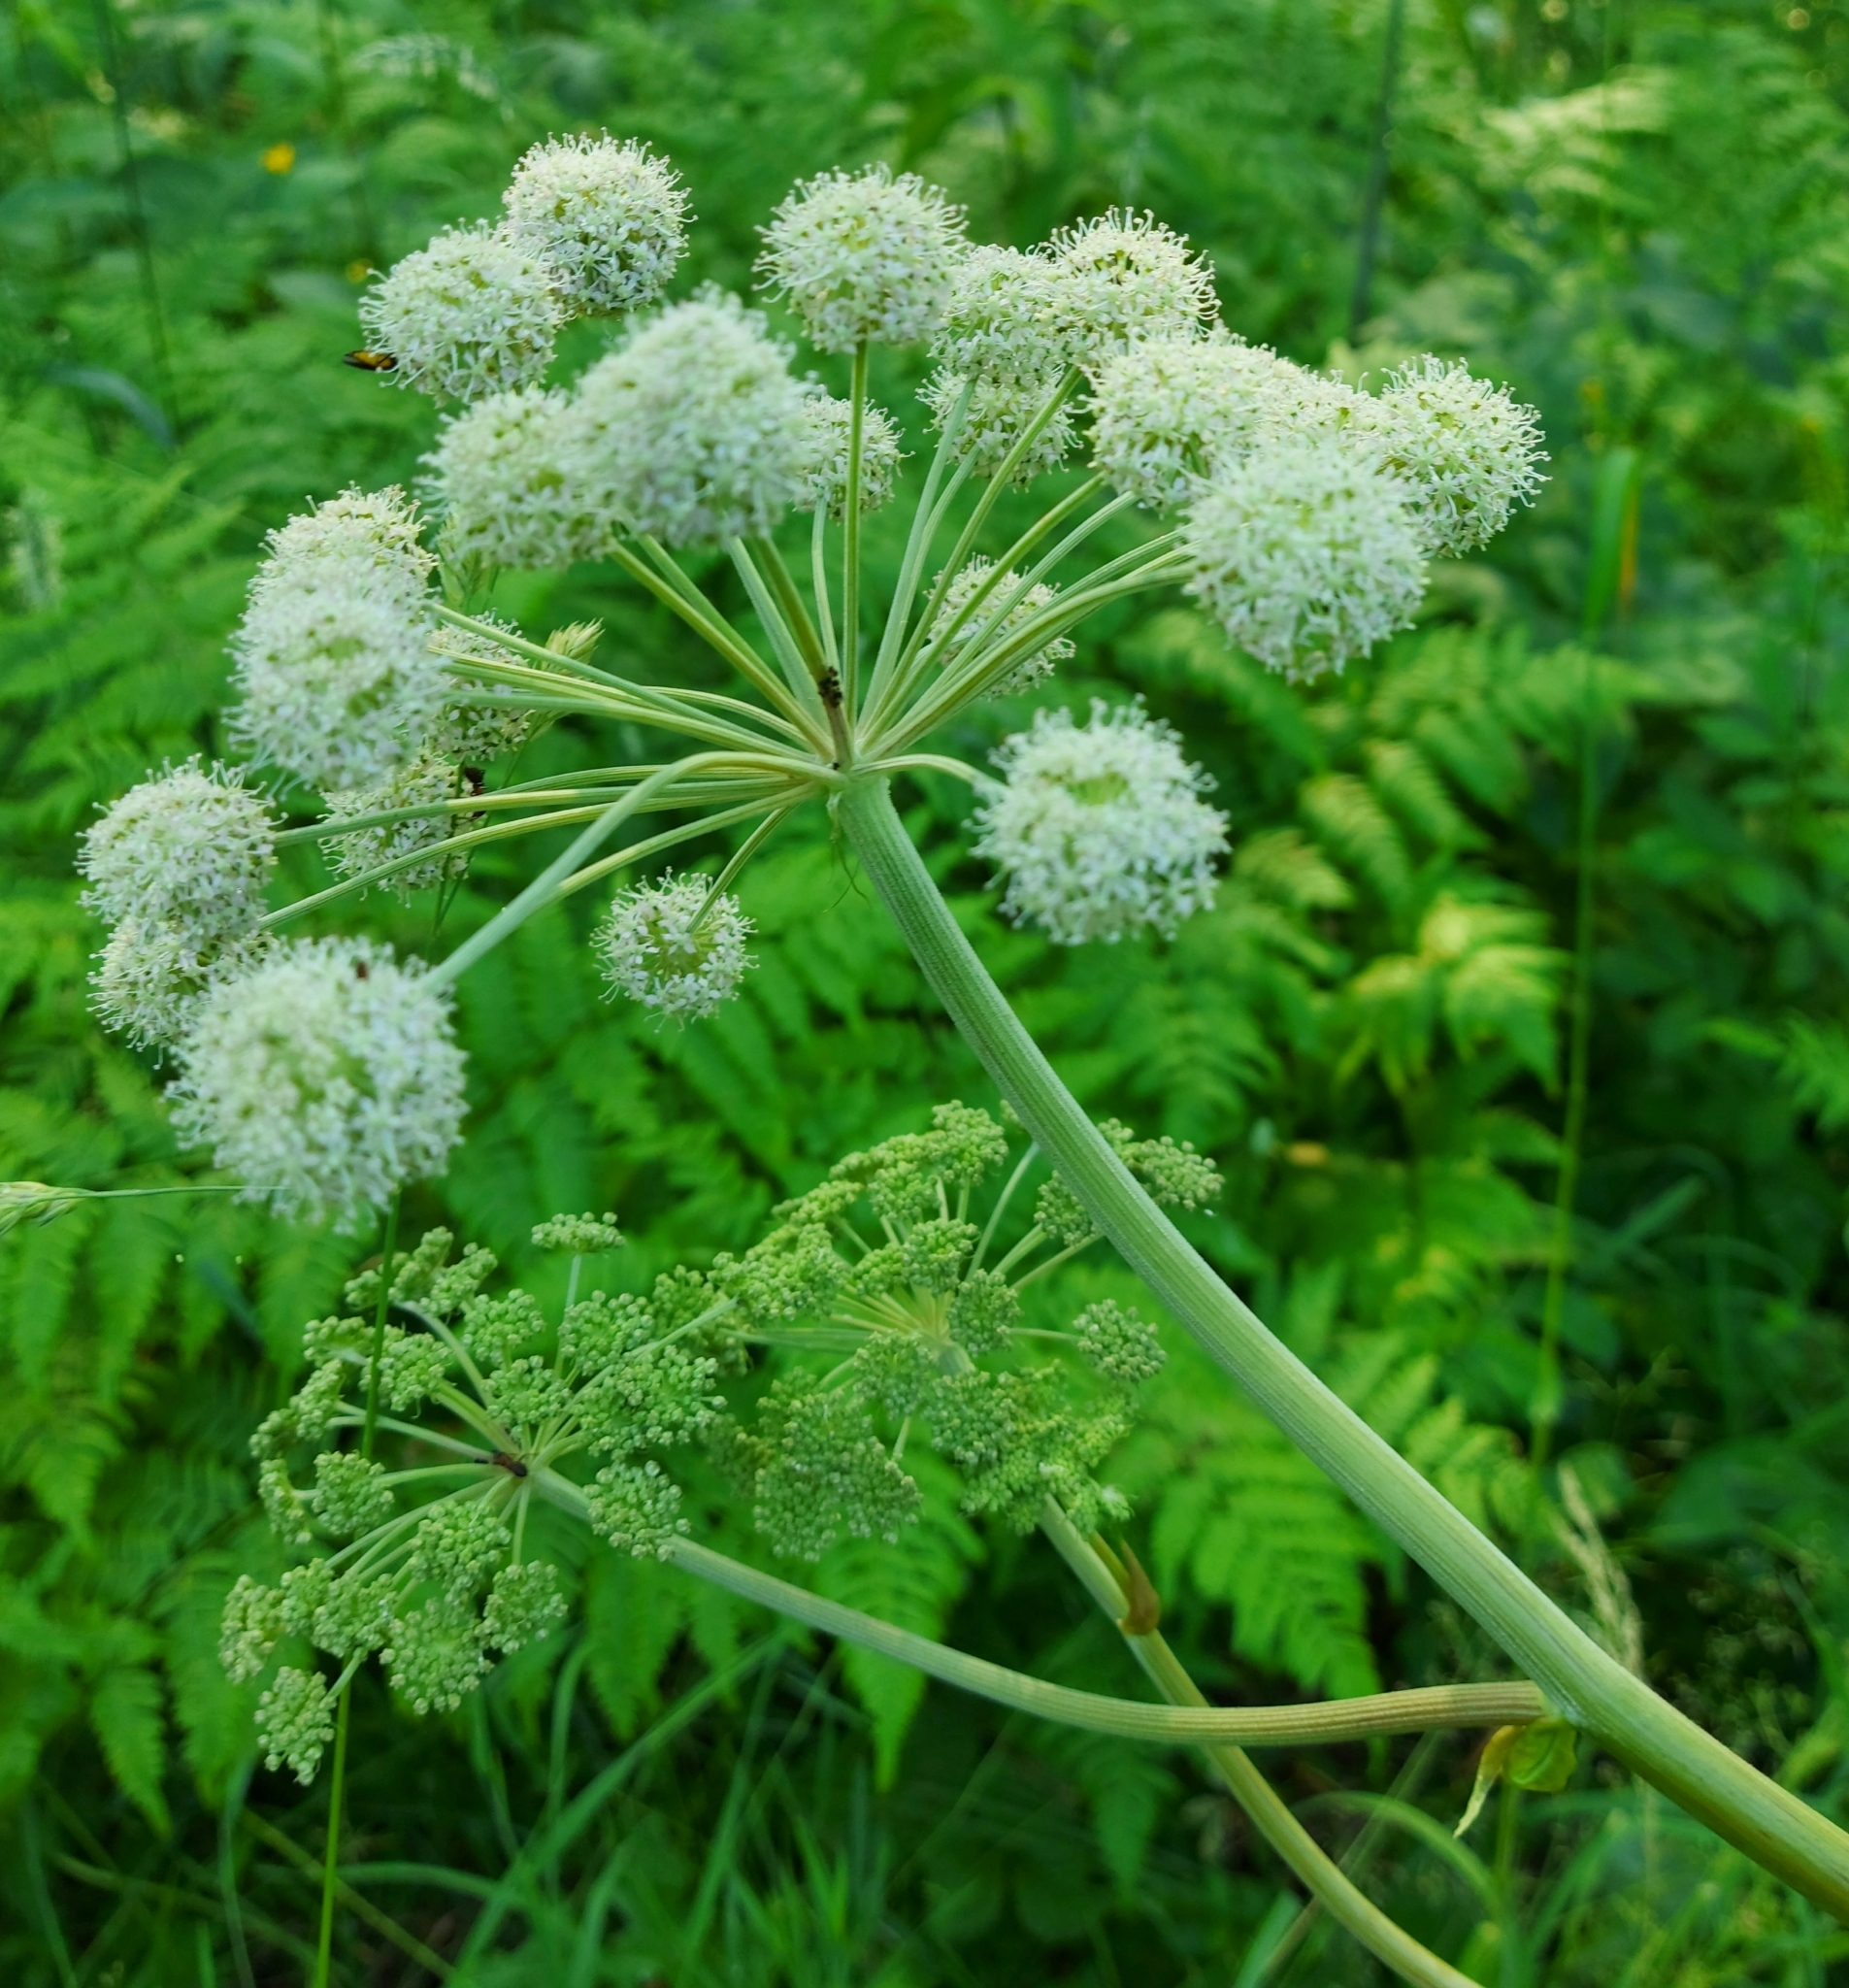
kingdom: Plantae
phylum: Tracheophyta
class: Magnoliopsida
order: Apiales
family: Apiaceae
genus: Seseli
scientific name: Seseli libanotis
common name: Mooncarrot
